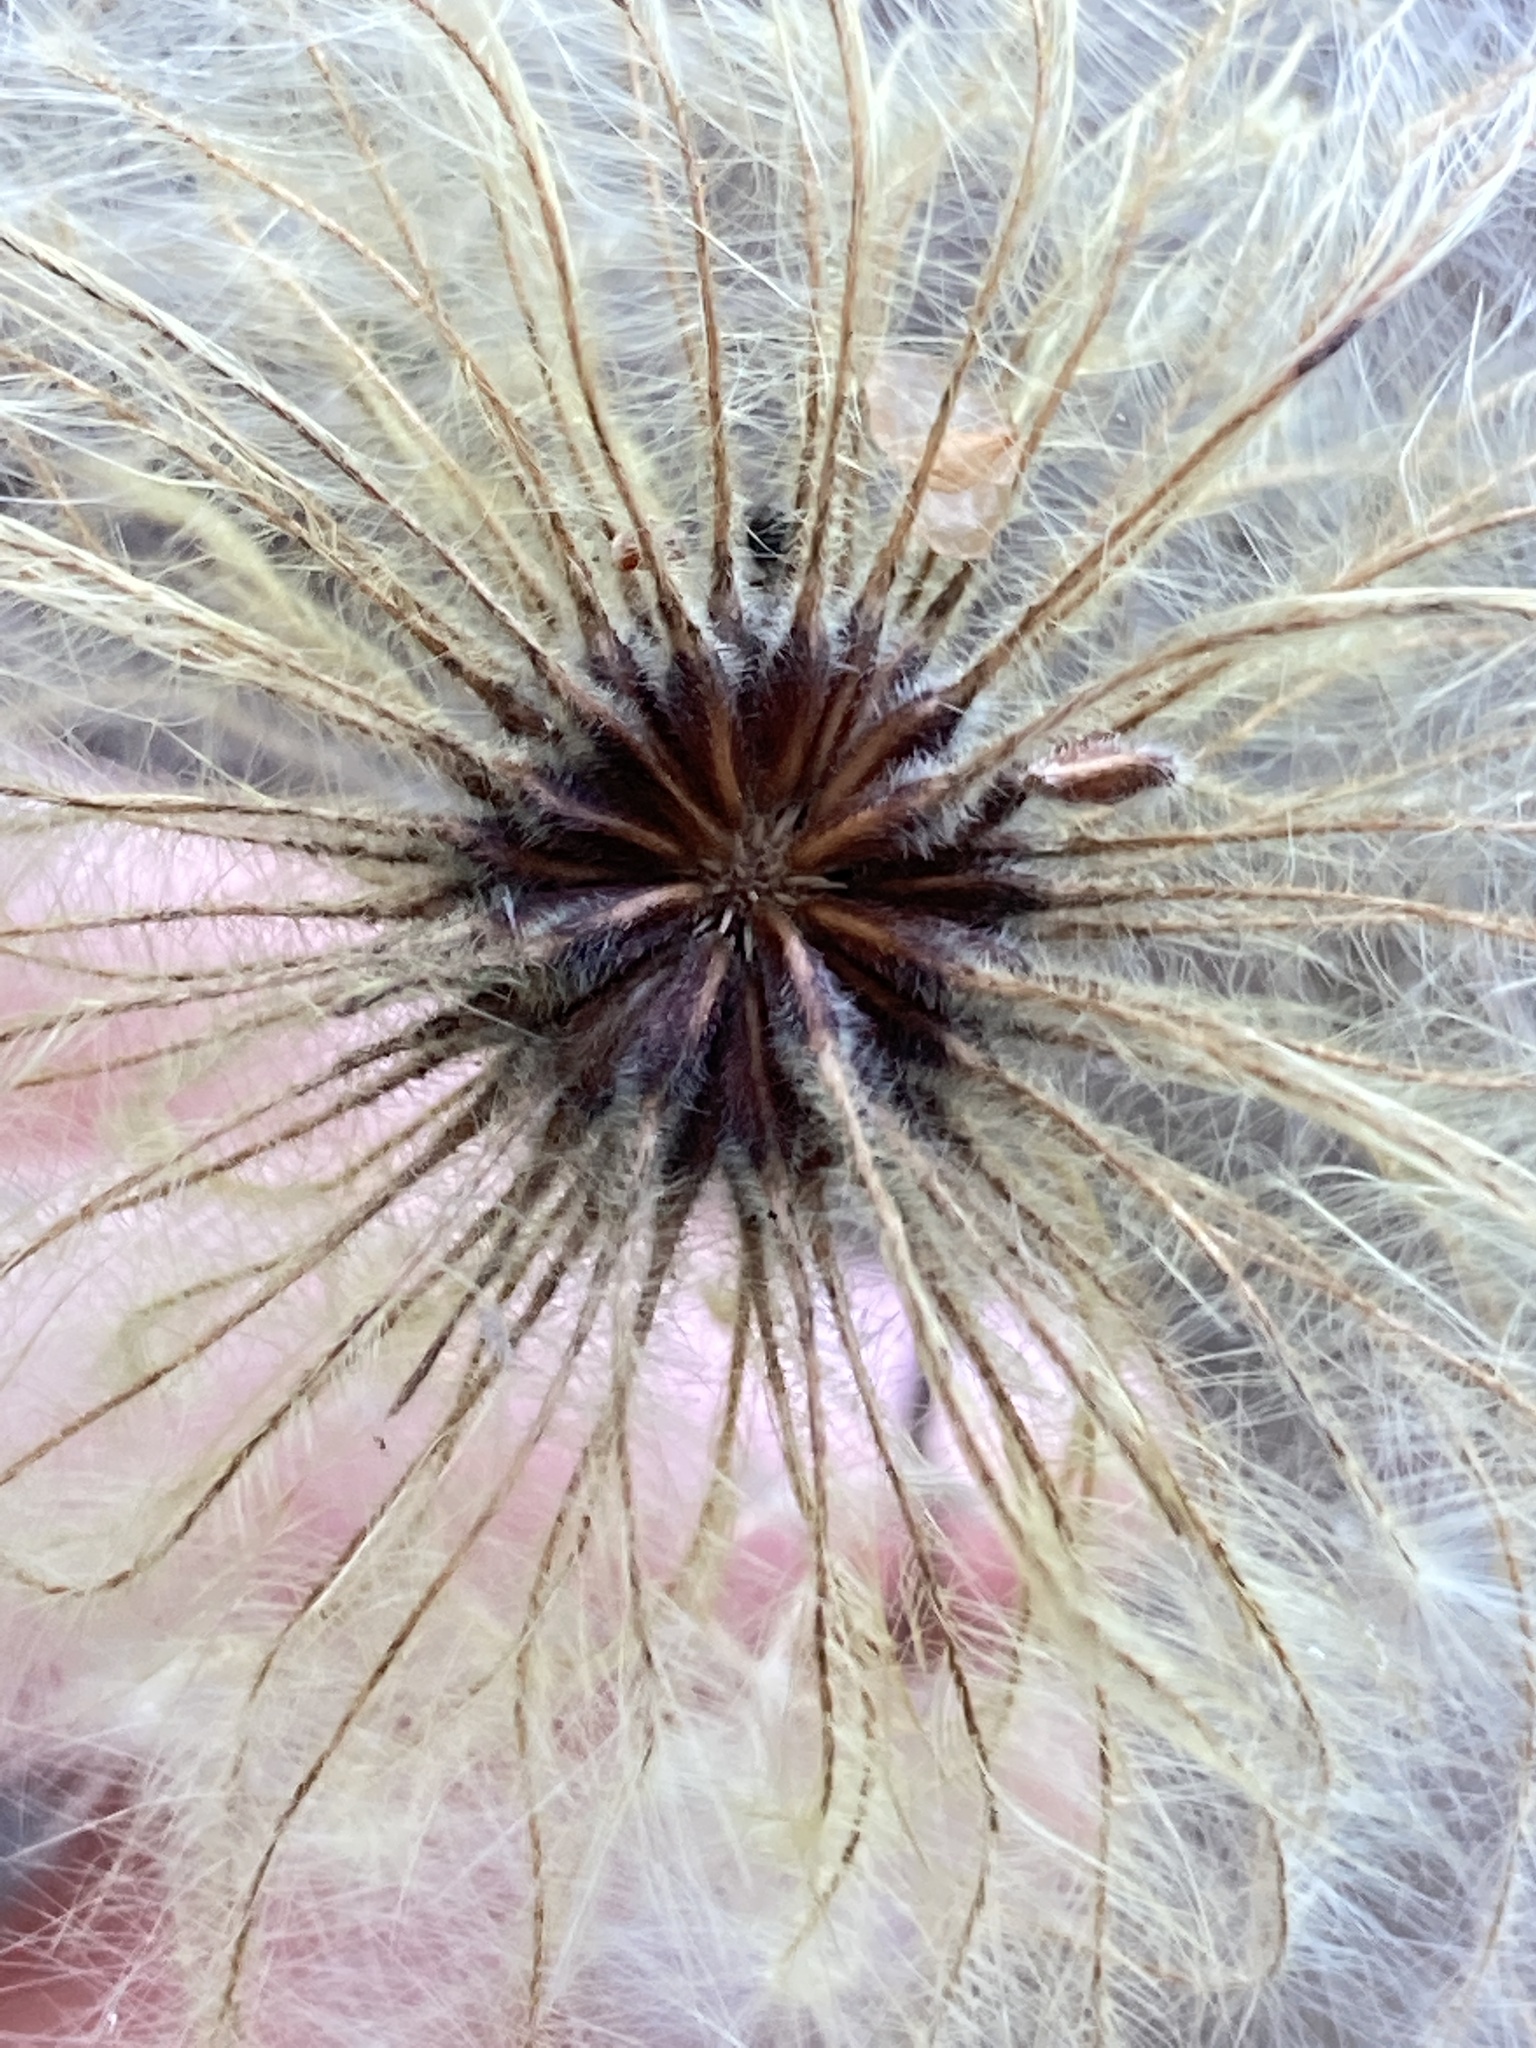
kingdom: Plantae
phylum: Tracheophyta
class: Magnoliopsida
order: Ranunculales
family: Ranunculaceae
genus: Clematis
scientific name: Clematis sibirica
